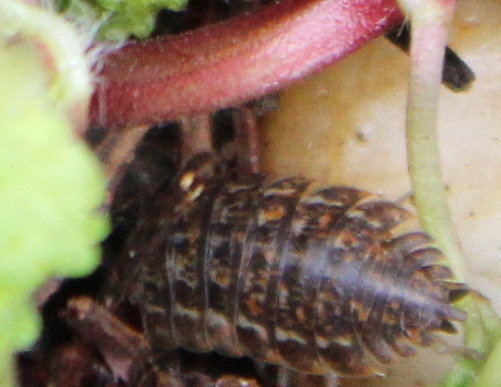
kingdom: Animalia
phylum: Arthropoda
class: Malacostraca
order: Isopoda
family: Trachelipodidae
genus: Trachelipus
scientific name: Trachelipus rathkii
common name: Isopod
